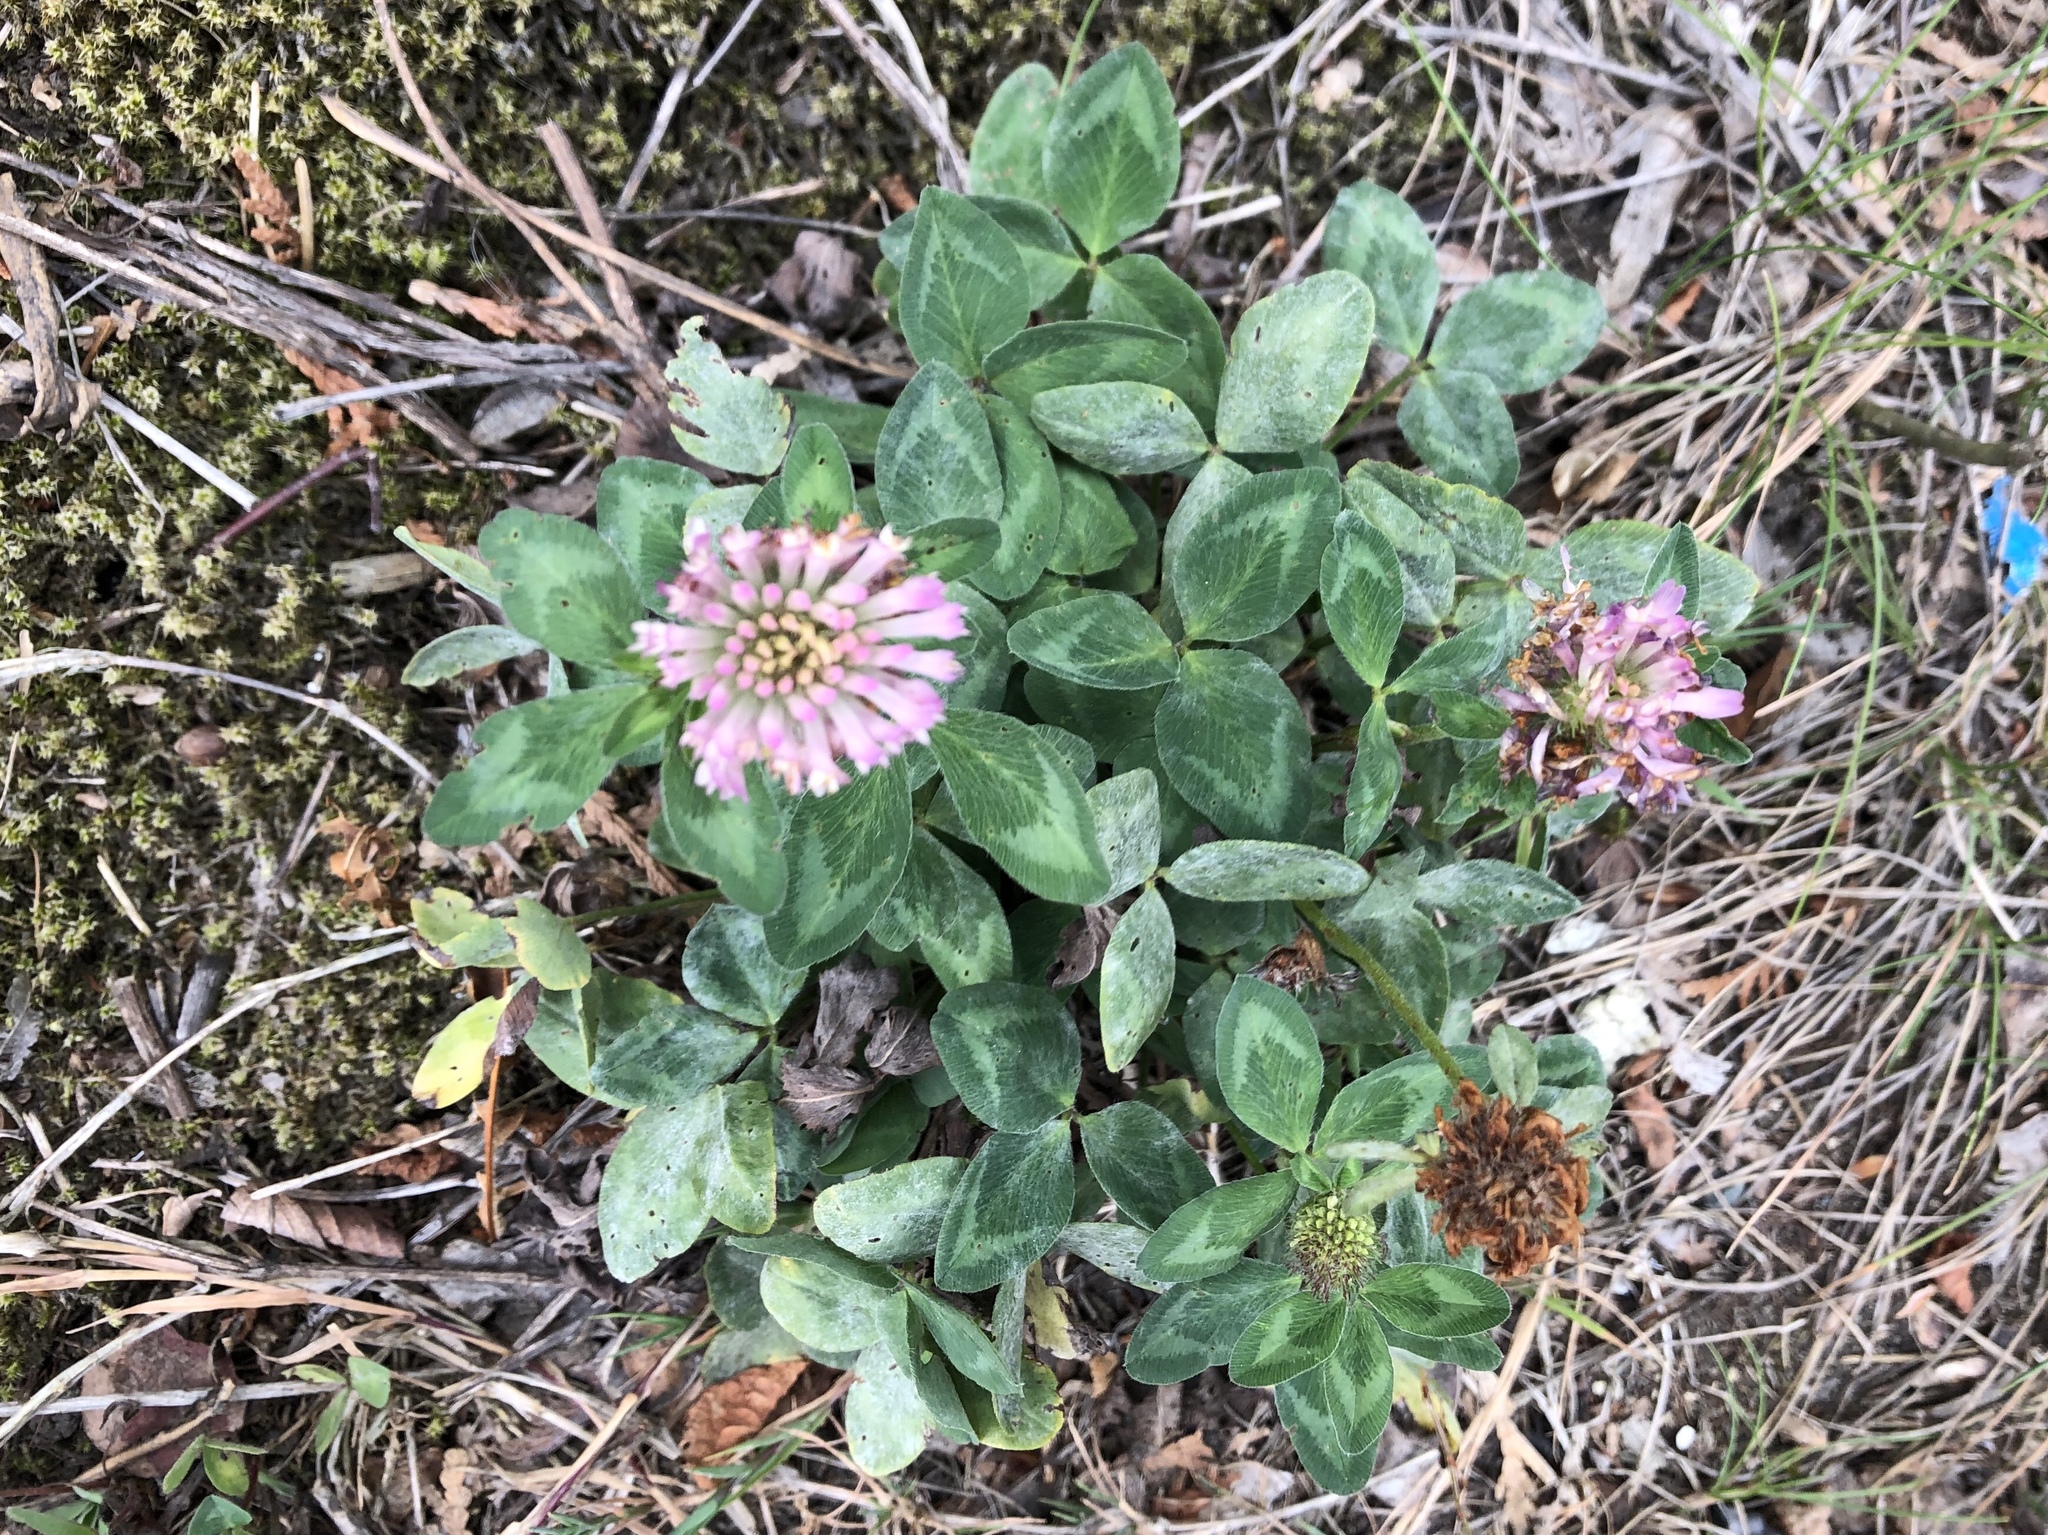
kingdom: Plantae
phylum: Tracheophyta
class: Magnoliopsida
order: Fabales
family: Fabaceae
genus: Trifolium
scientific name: Trifolium pratense
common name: Red clover
